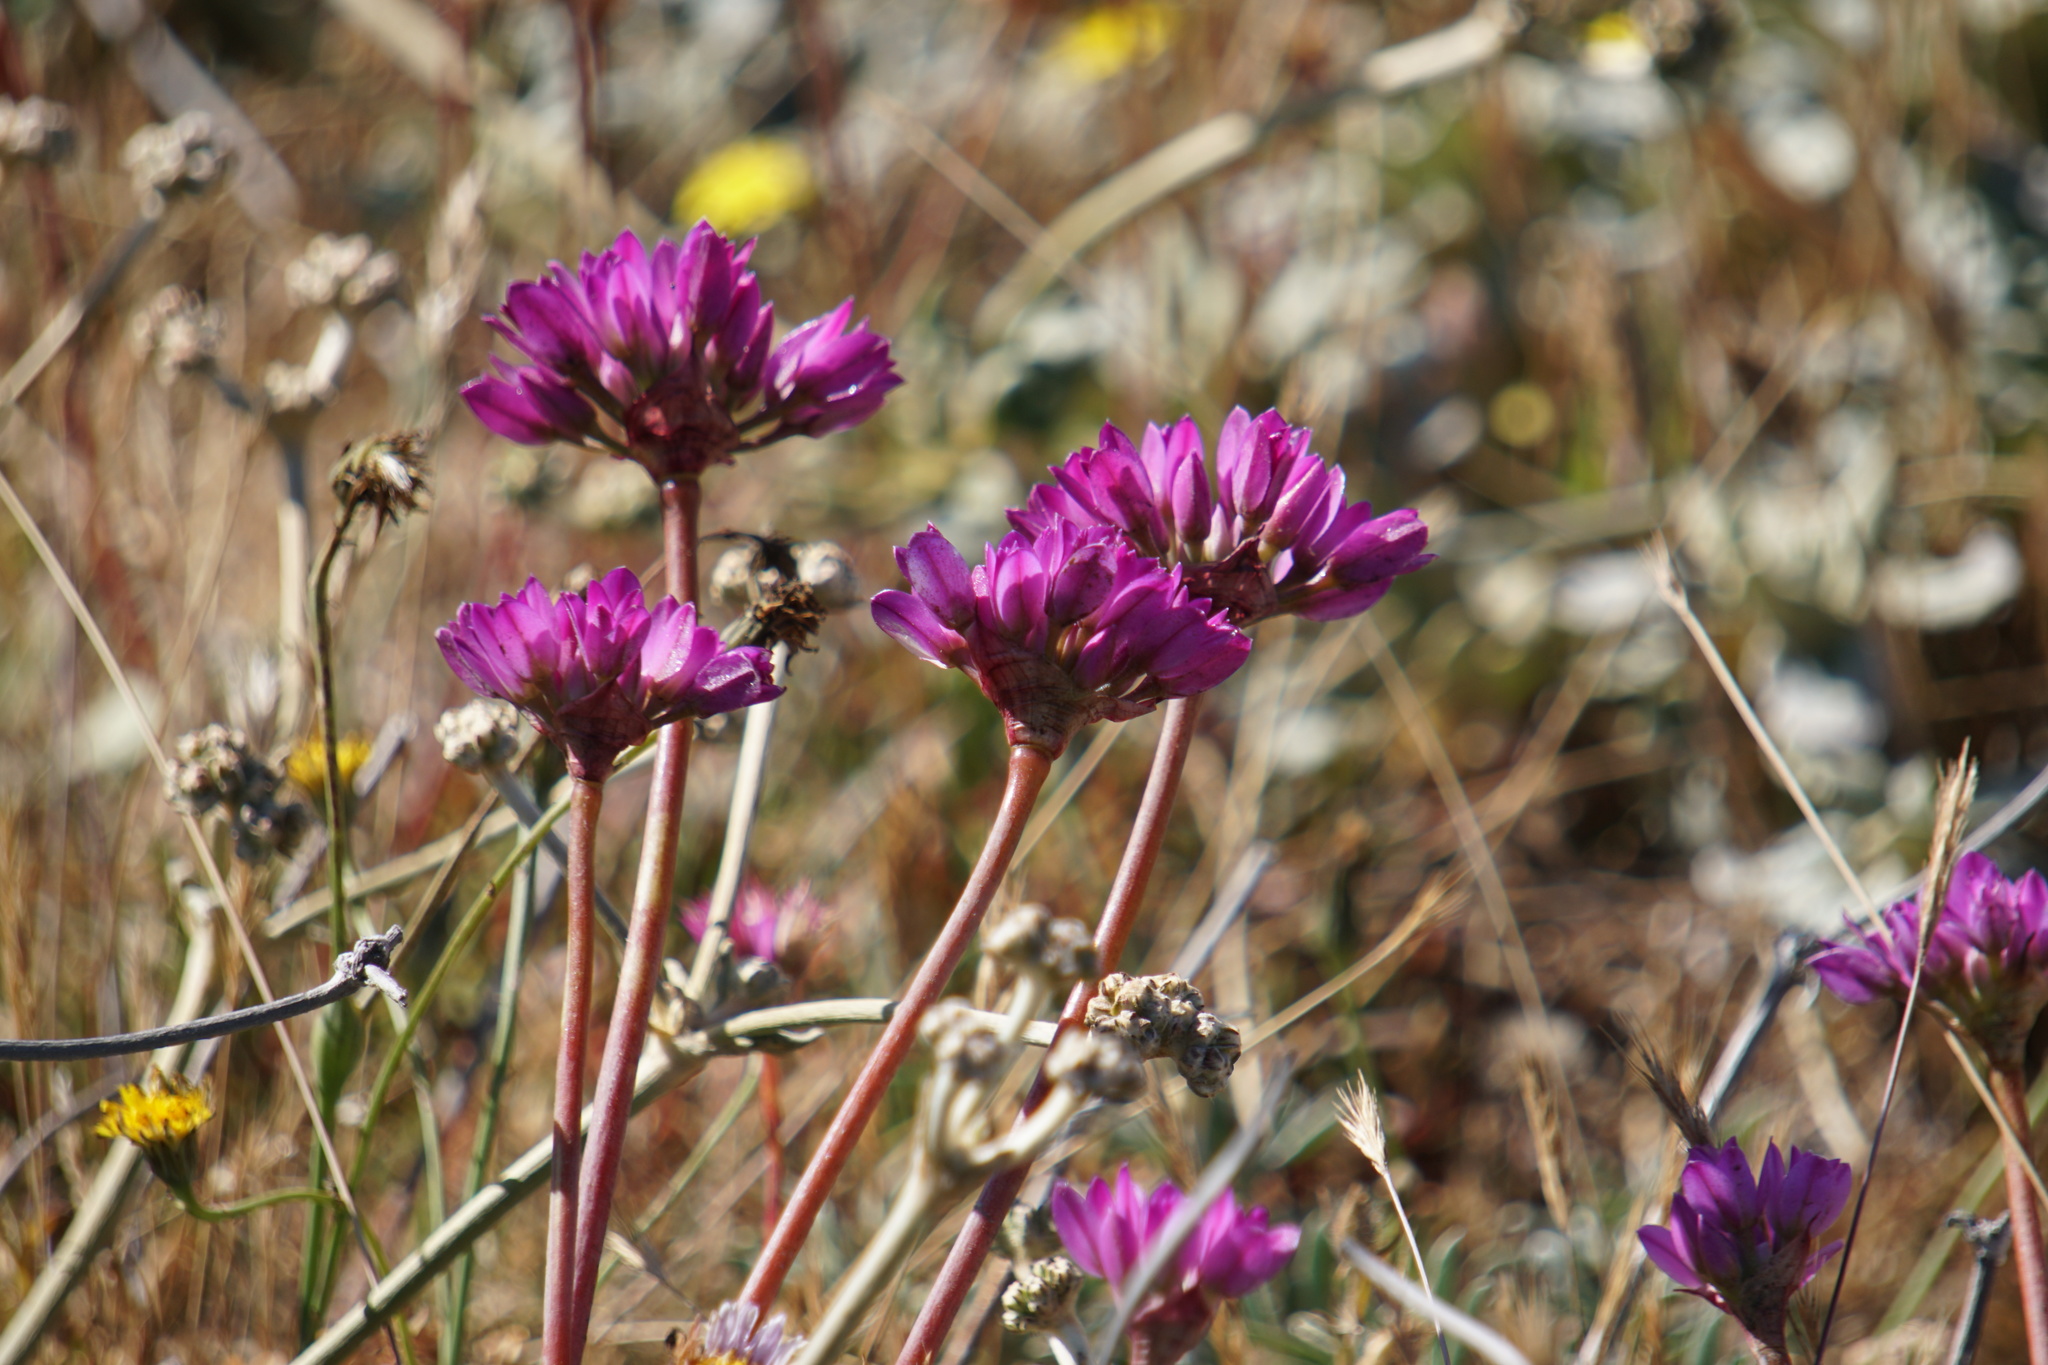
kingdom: Plantae
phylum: Tracheophyta
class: Liliopsida
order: Asparagales
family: Amaryllidaceae
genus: Allium
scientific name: Allium dichlamydeum
